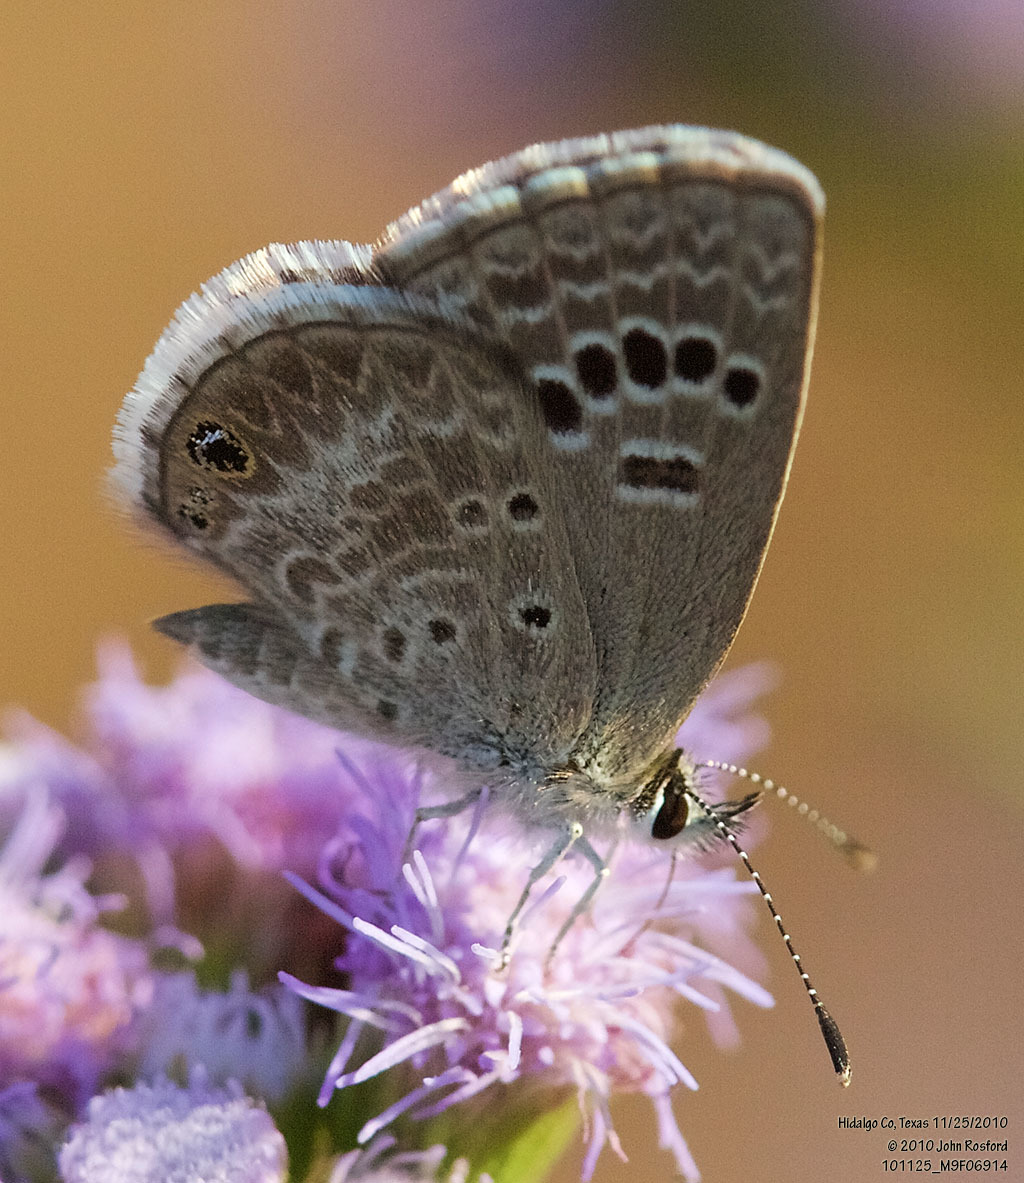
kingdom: Animalia
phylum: Arthropoda
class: Insecta
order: Lepidoptera
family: Lycaenidae
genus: Echinargus
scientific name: Echinargus isola
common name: Reakirt's blue
